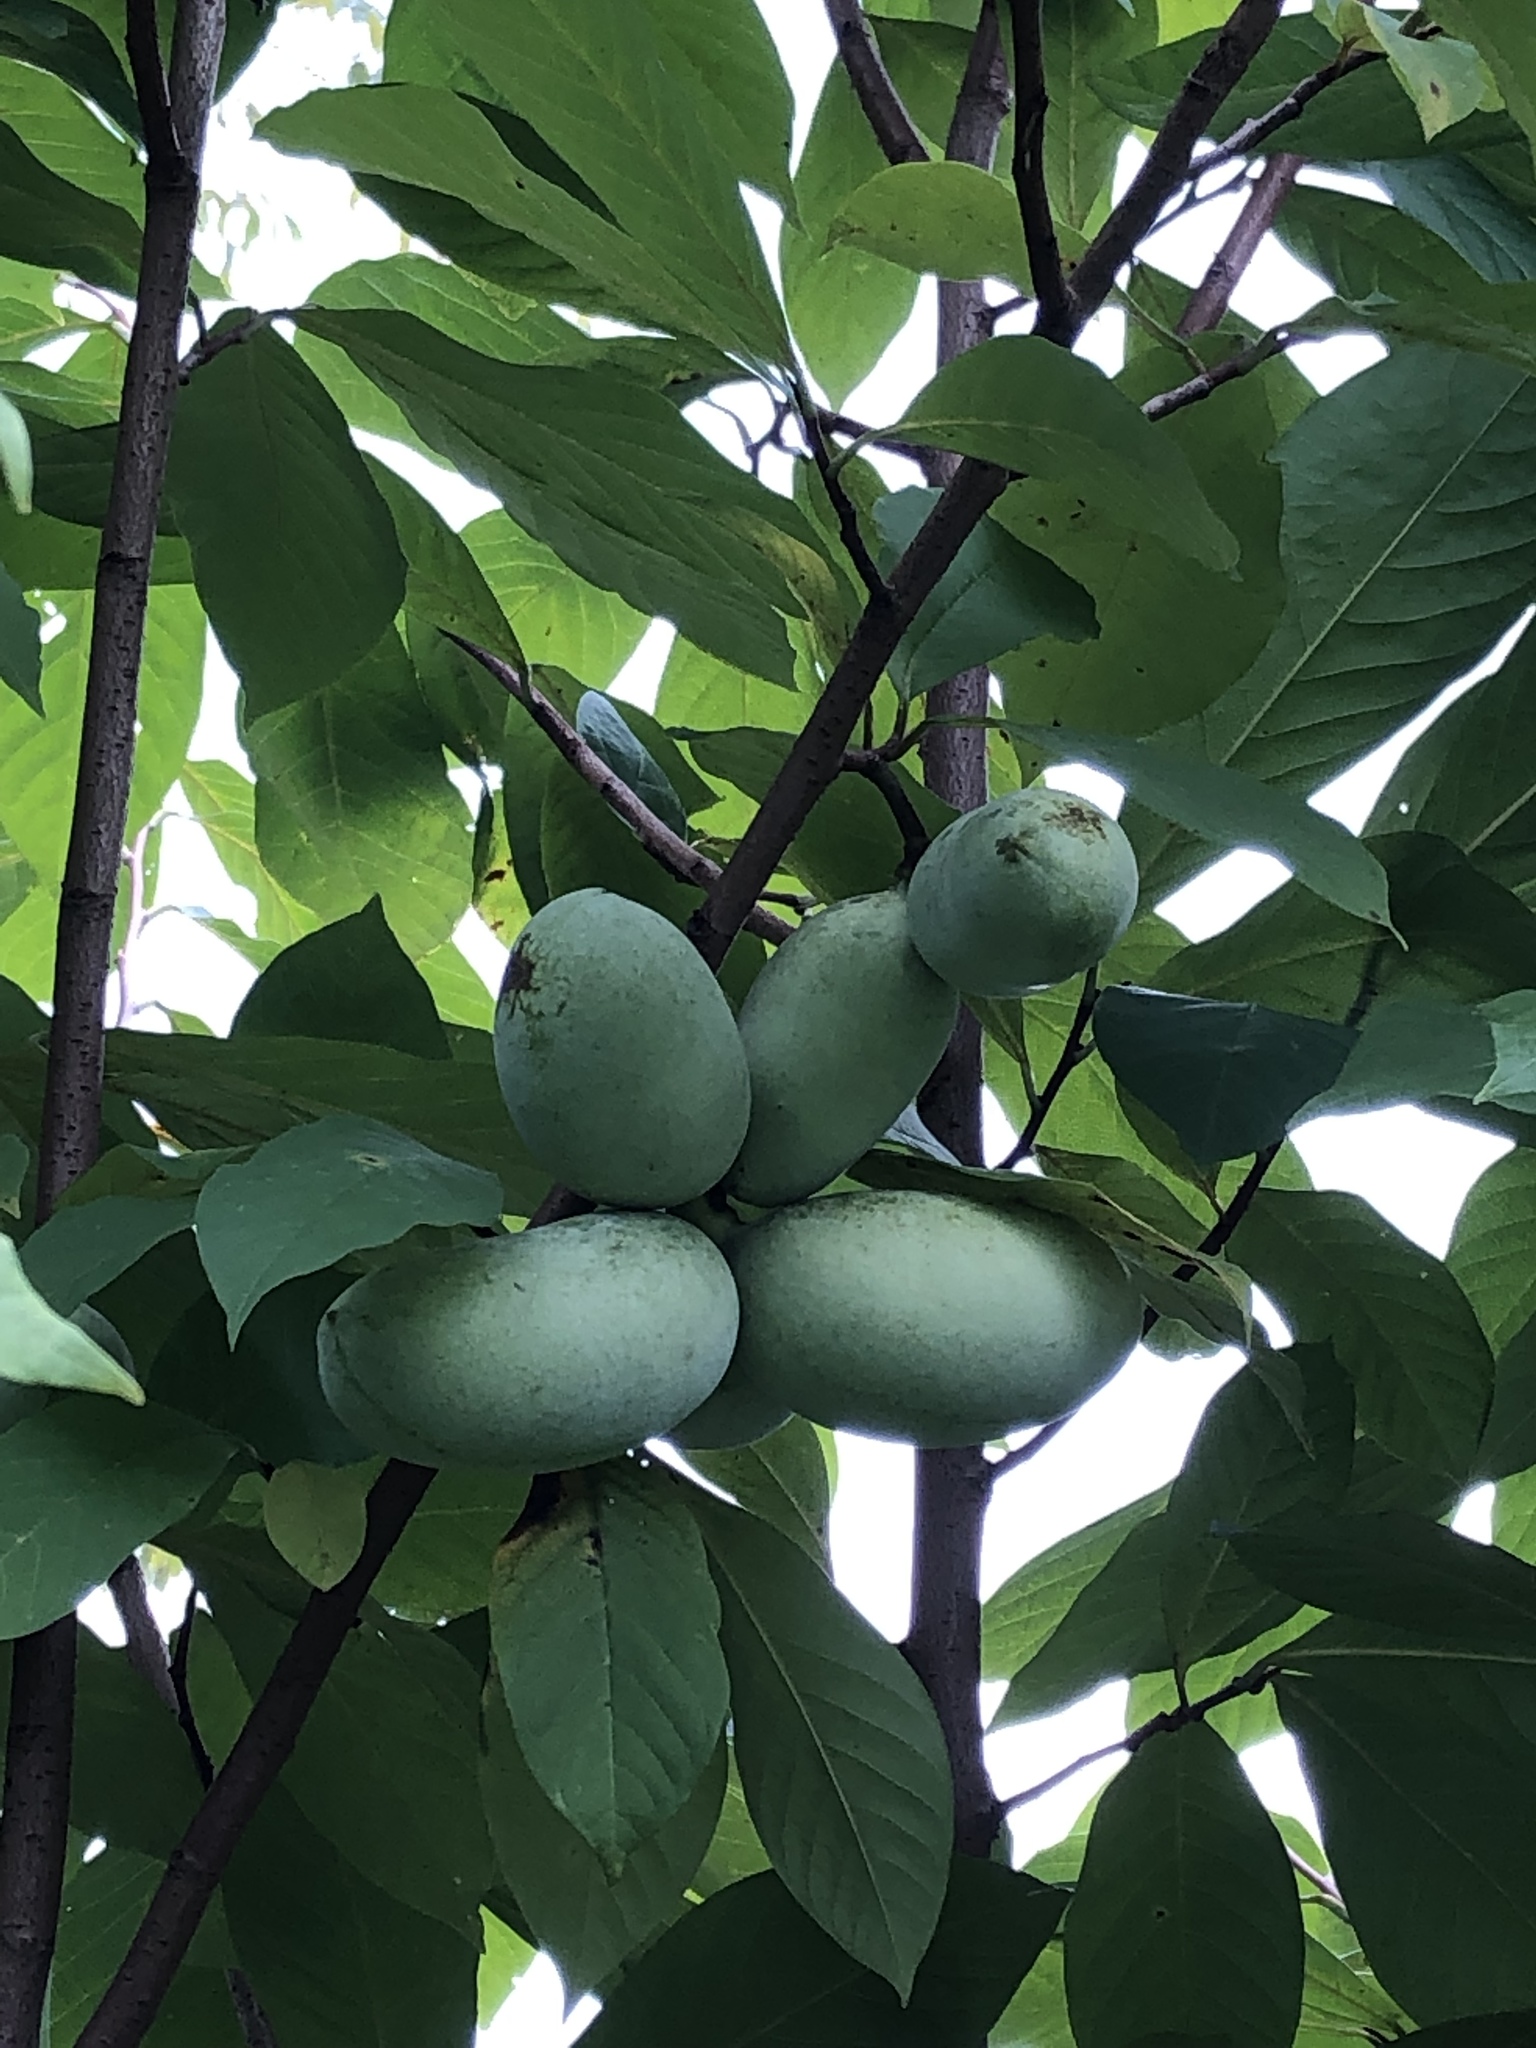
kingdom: Plantae
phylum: Tracheophyta
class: Magnoliopsida
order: Magnoliales
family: Annonaceae
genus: Asimina
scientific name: Asimina triloba
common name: Dog-banana
